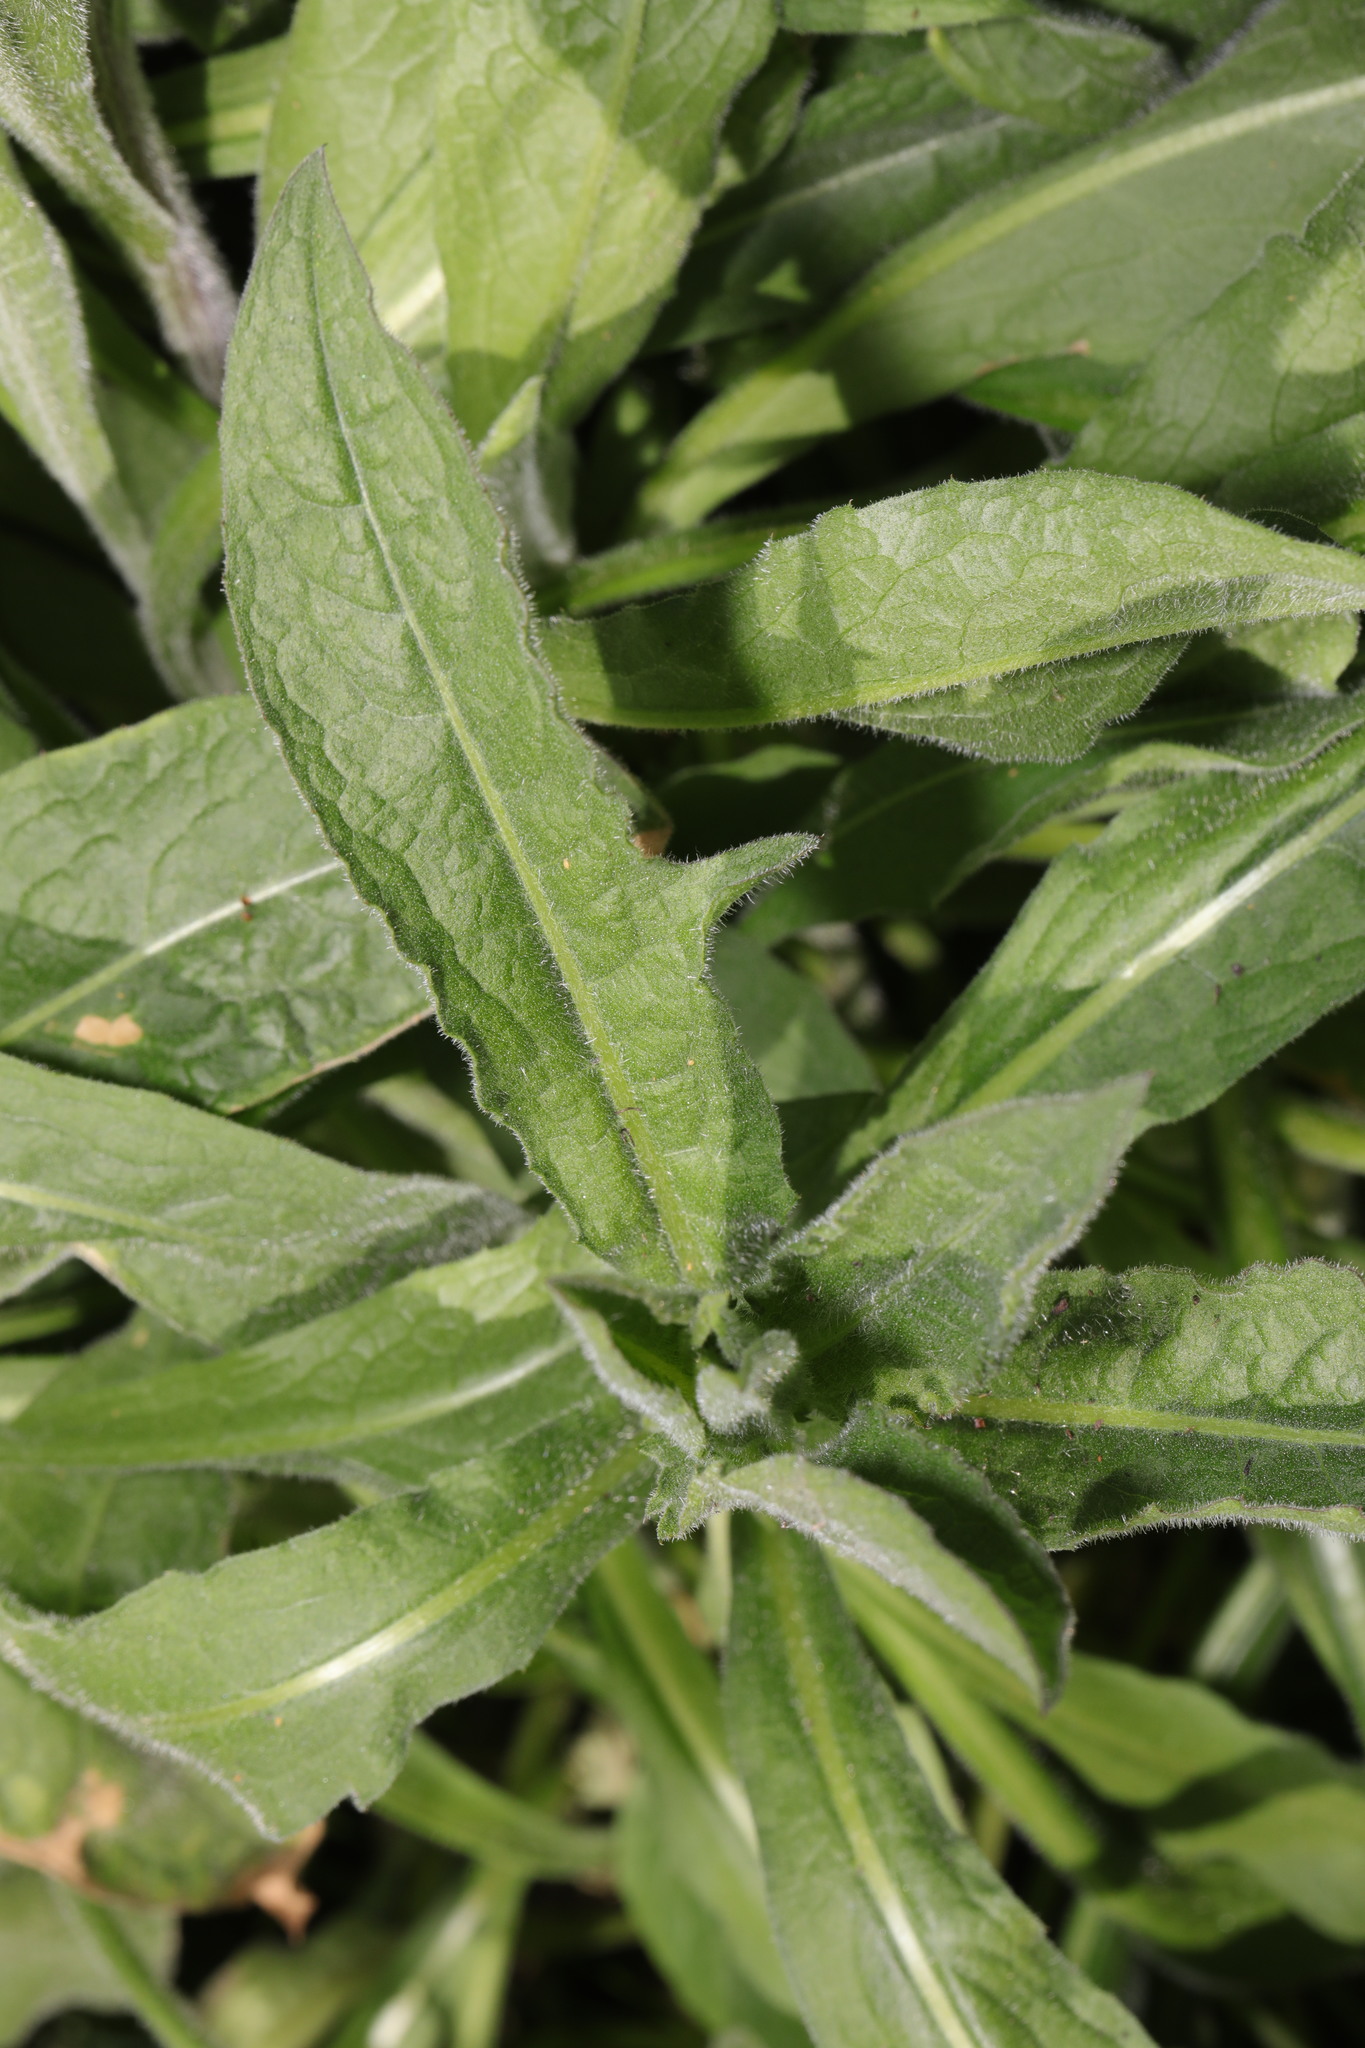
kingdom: Plantae
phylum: Tracheophyta
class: Magnoliopsida
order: Asterales
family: Asteraceae
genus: Centaurea
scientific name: Centaurea nigra
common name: Lesser knapweed
